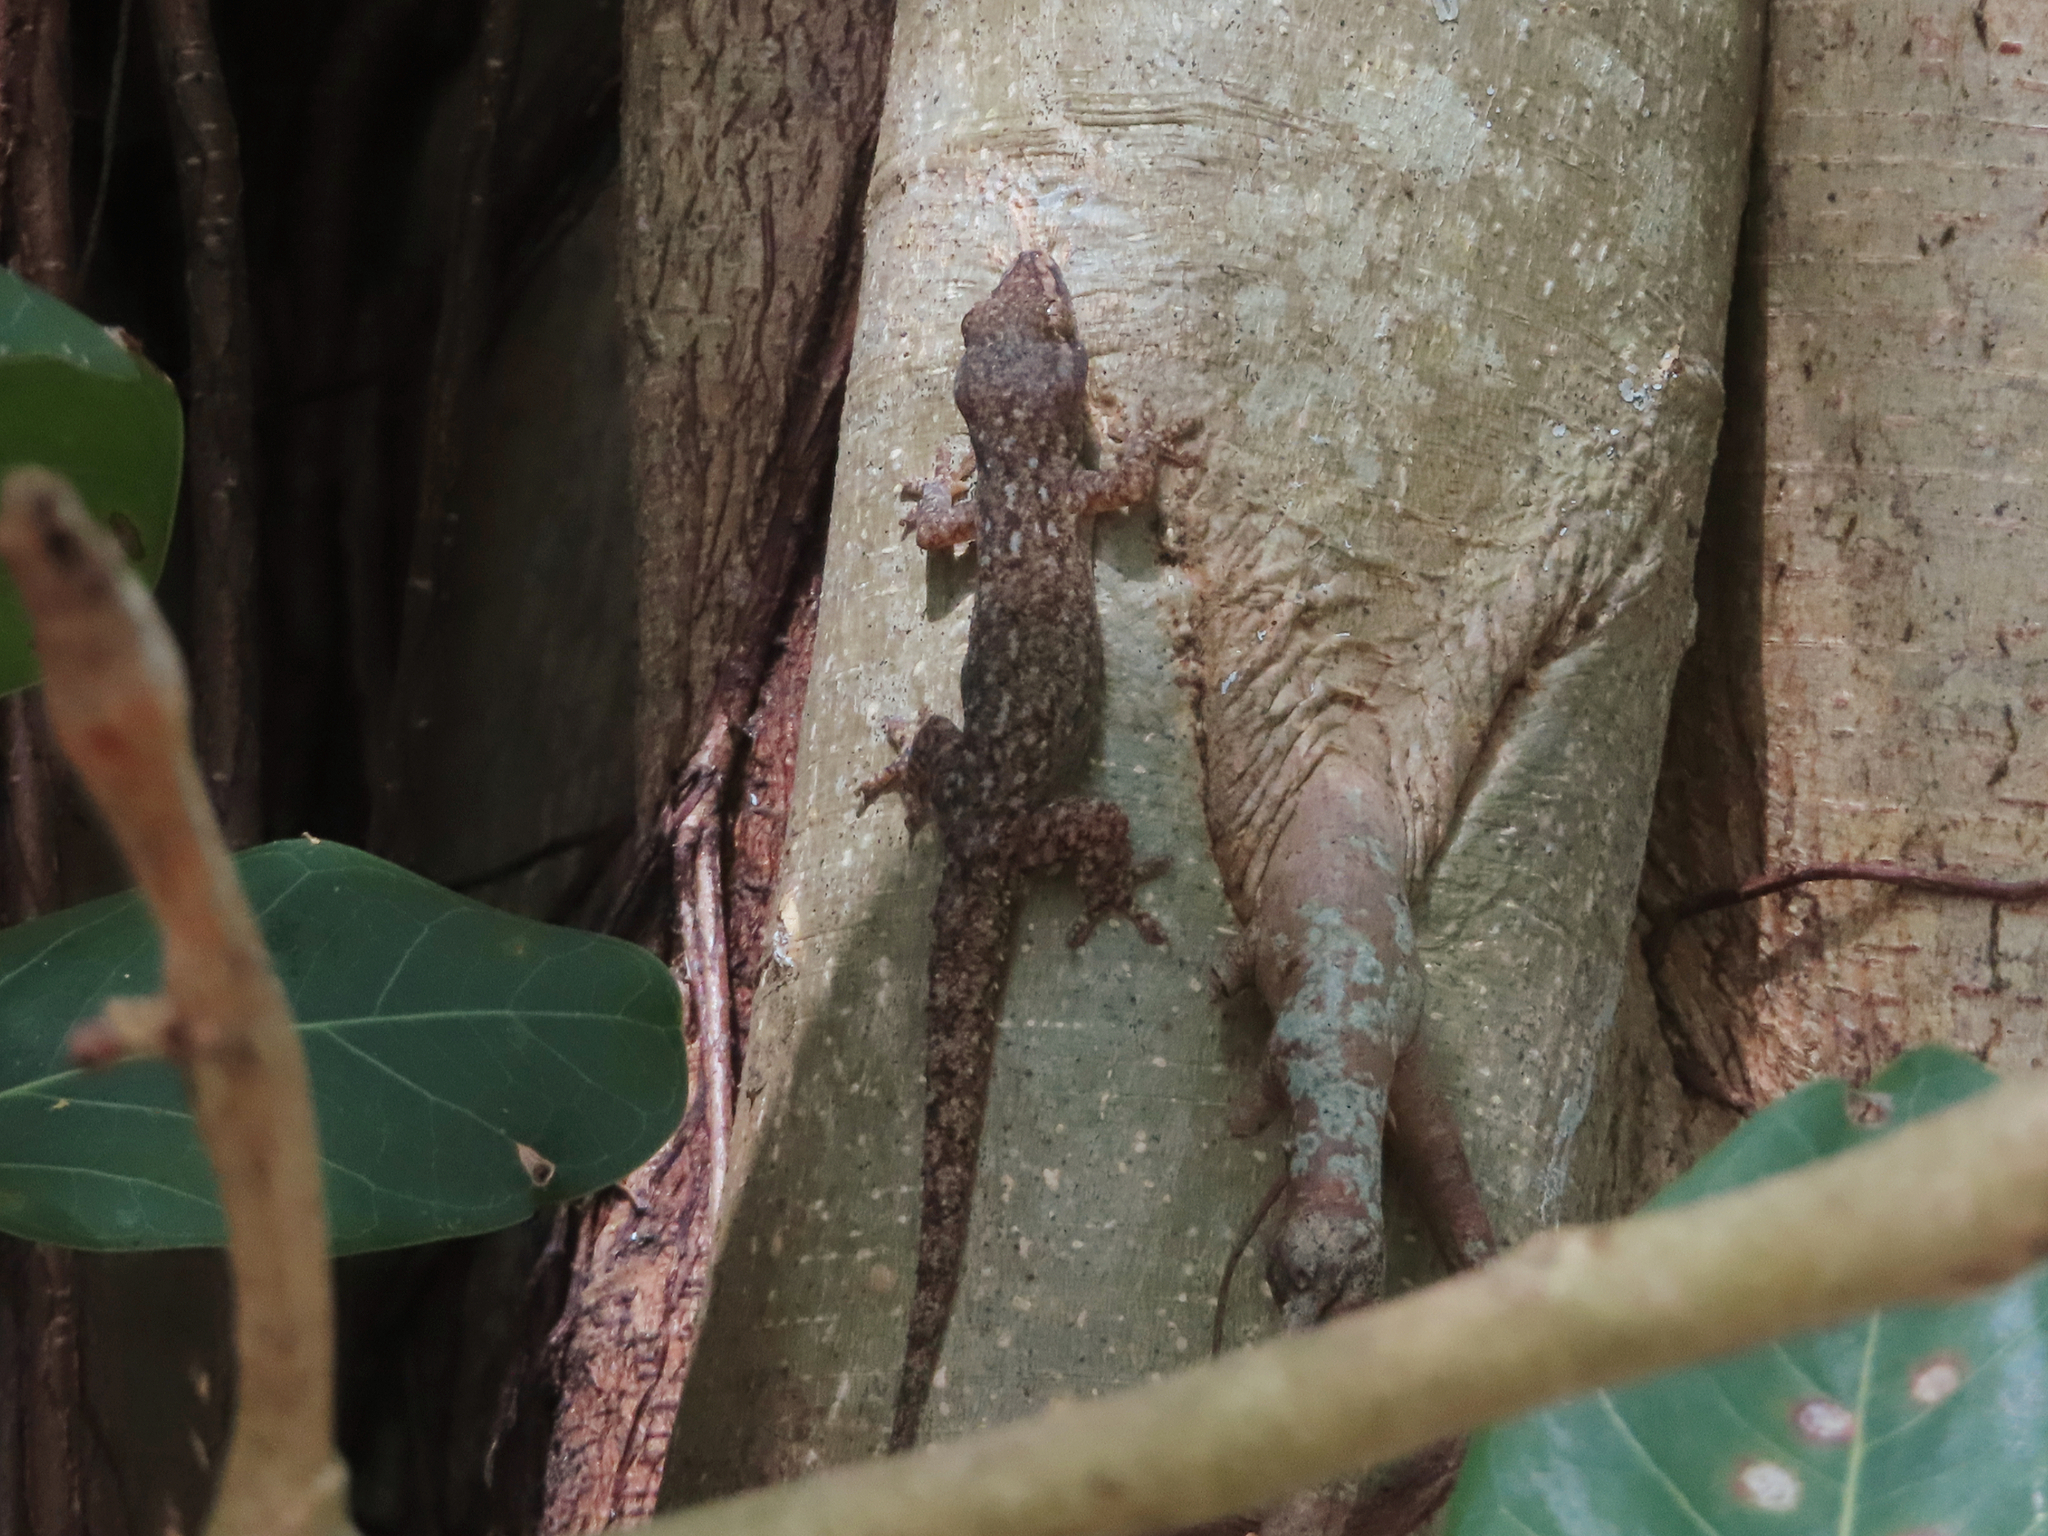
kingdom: Animalia
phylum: Chordata
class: Squamata
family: Gekkonidae
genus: Hemidactylus
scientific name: Hemidactylus frenatus
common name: Common house gecko
